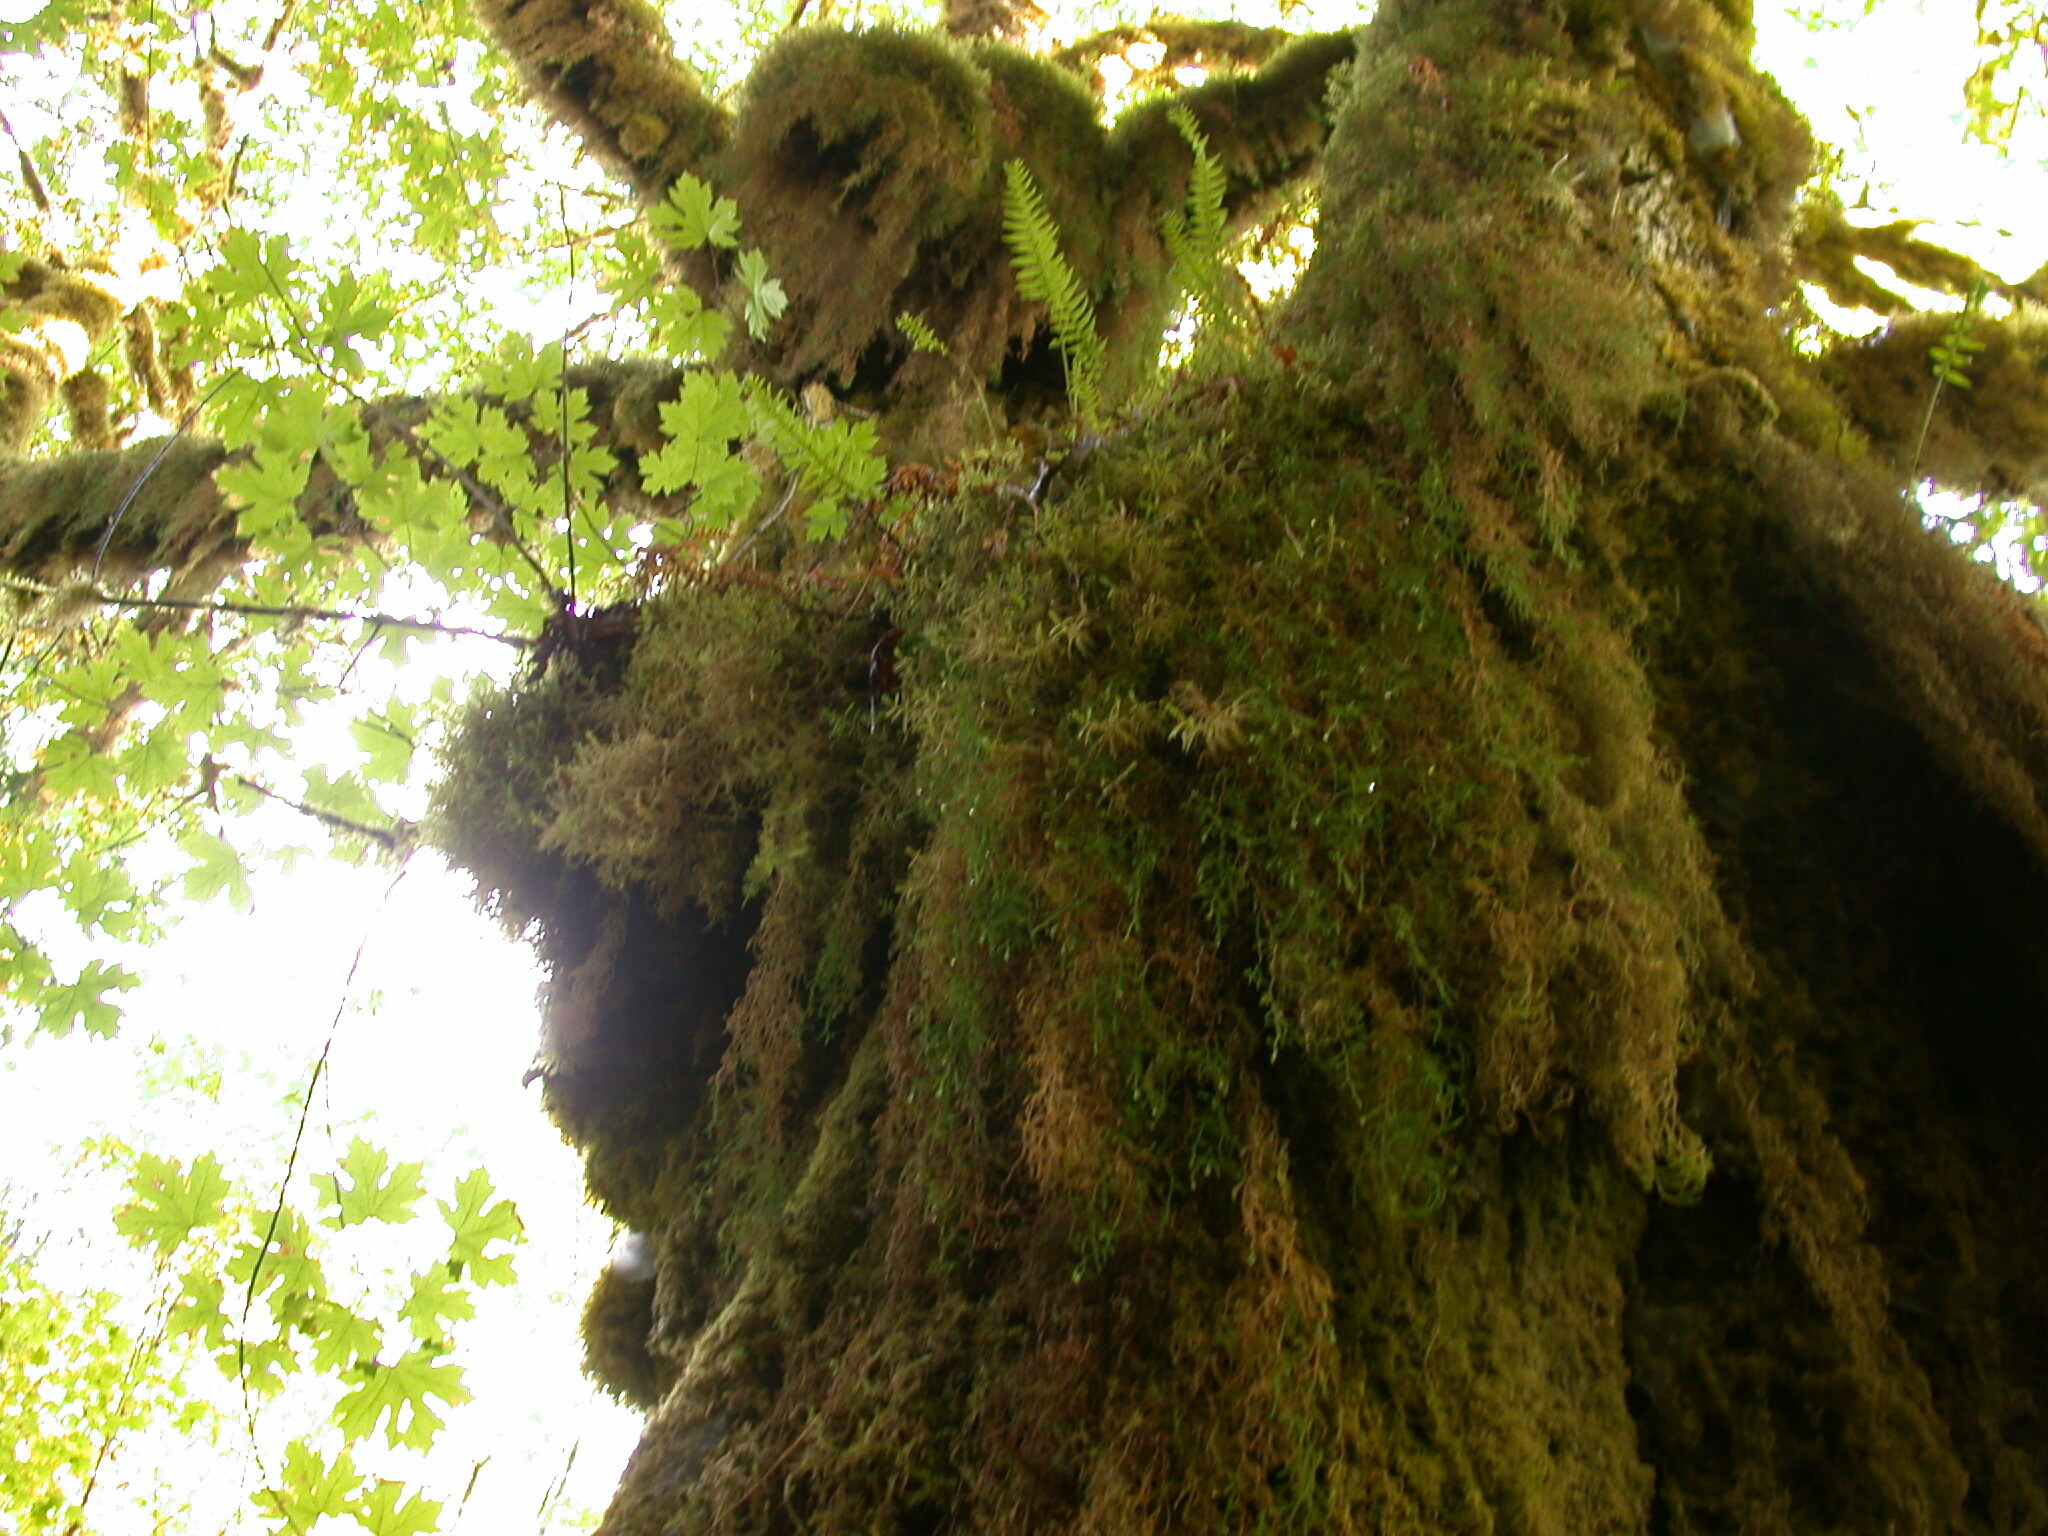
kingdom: Plantae
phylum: Tracheophyta
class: Magnoliopsida
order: Sapindales
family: Sapindaceae
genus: Acer
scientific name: Acer macrophyllum
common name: Oregon maple
